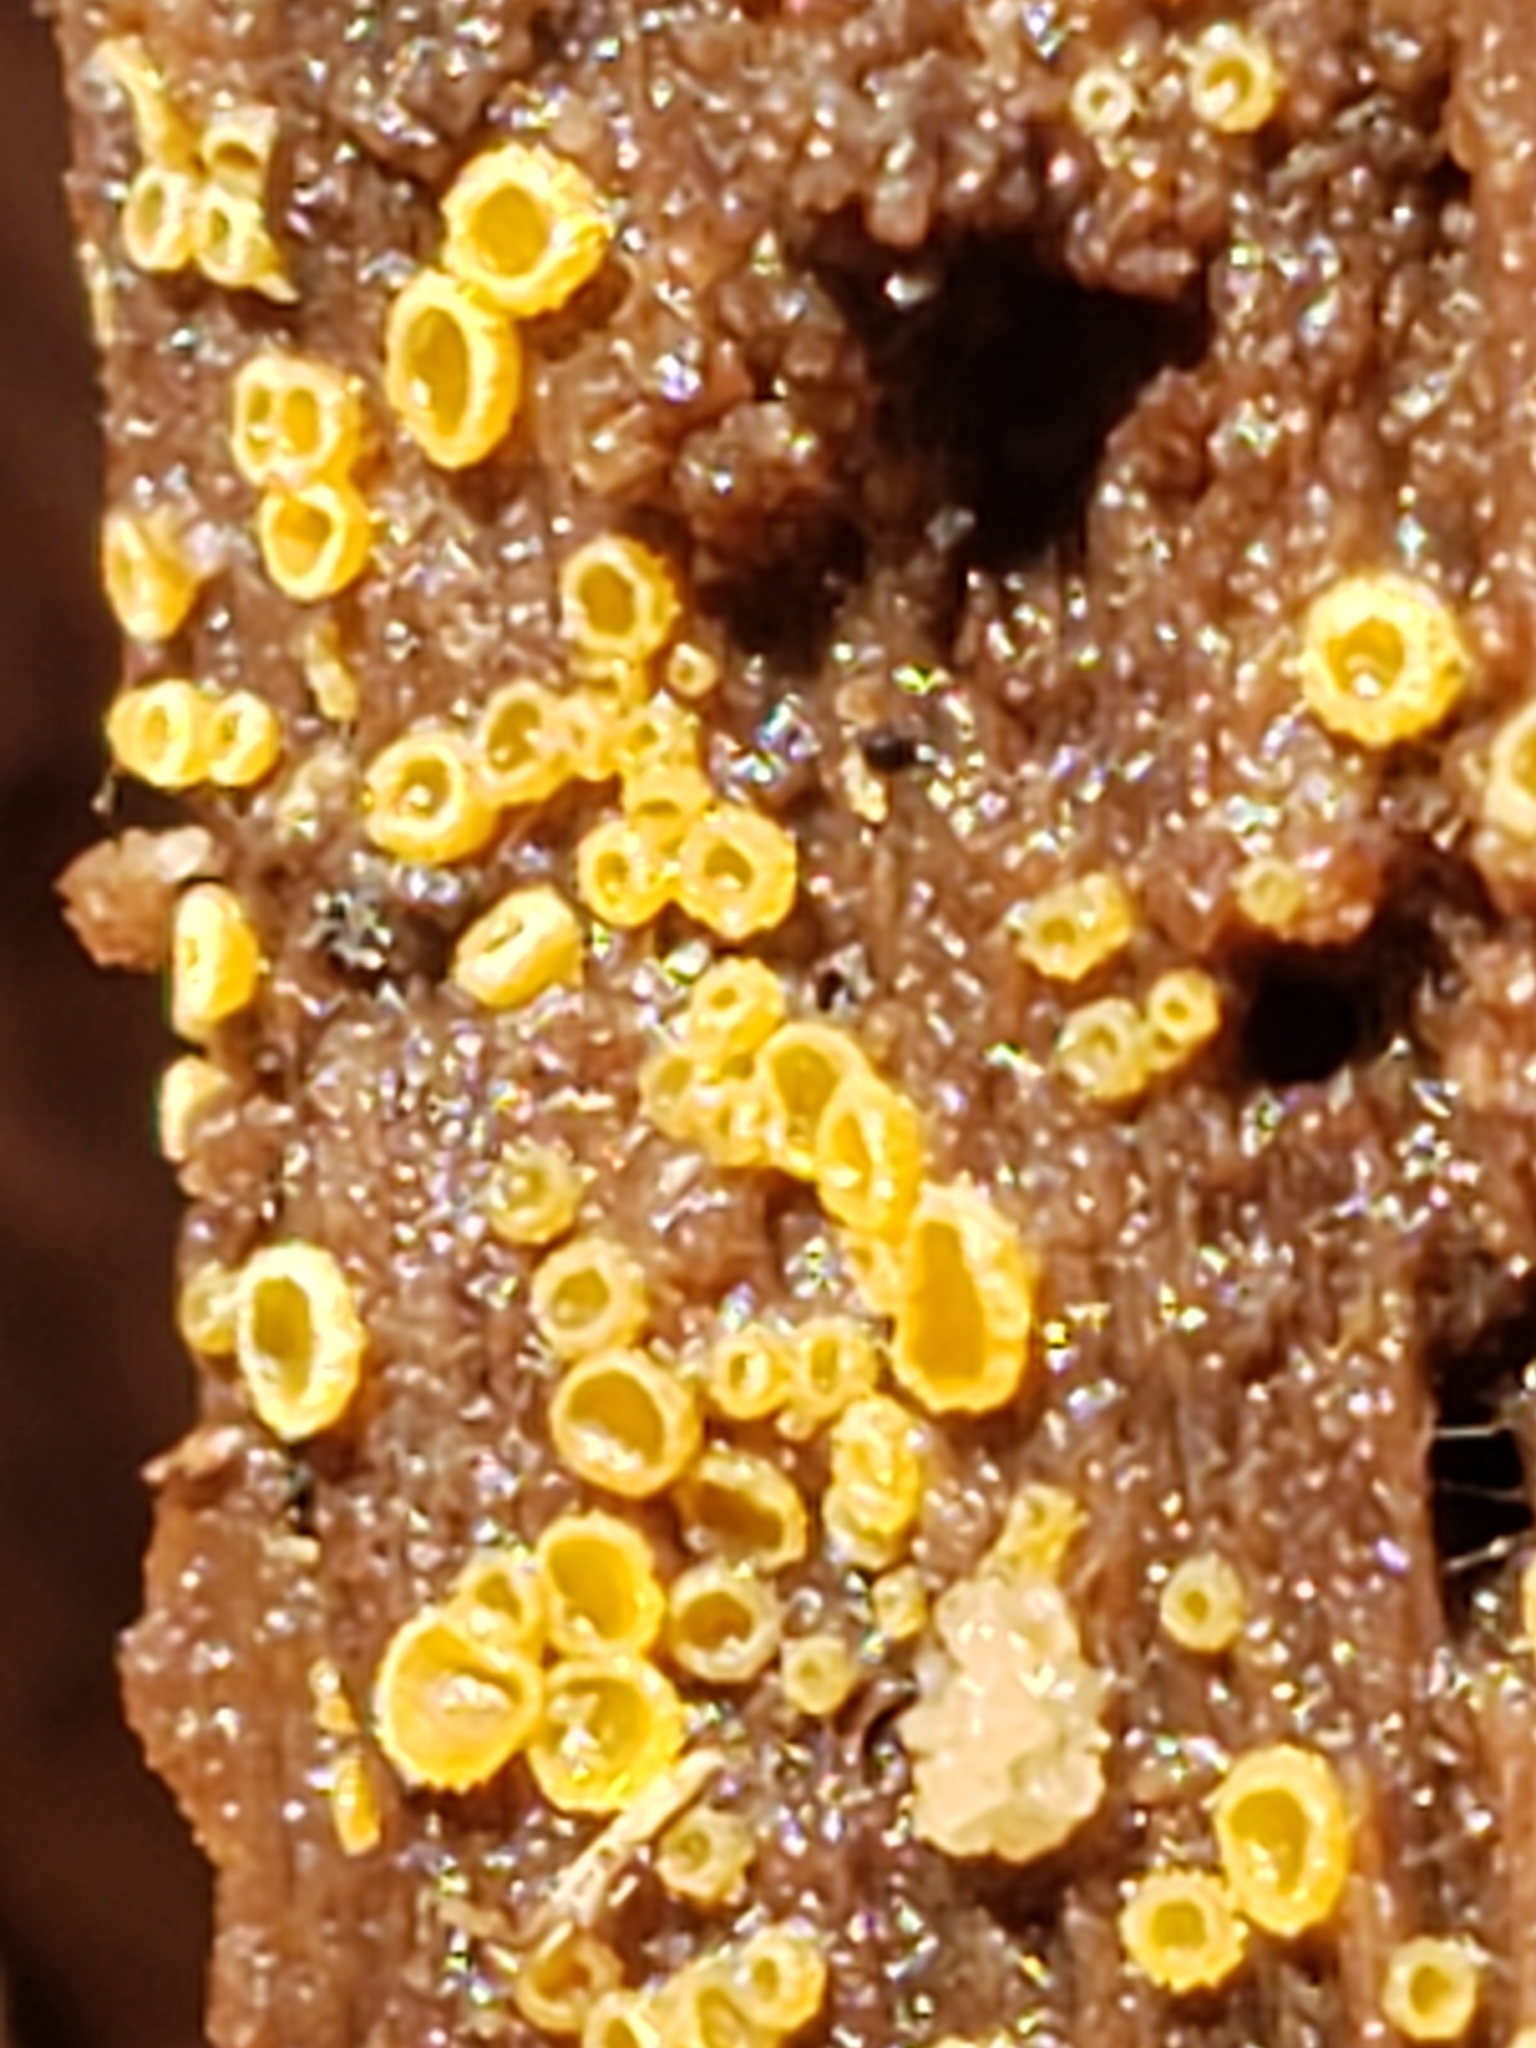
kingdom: Fungi
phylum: Ascomycota
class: Leotiomycetes
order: Helotiales
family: Arachnopezizaceae
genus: Arachnopeziza
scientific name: Arachnopeziza trabinelloides
